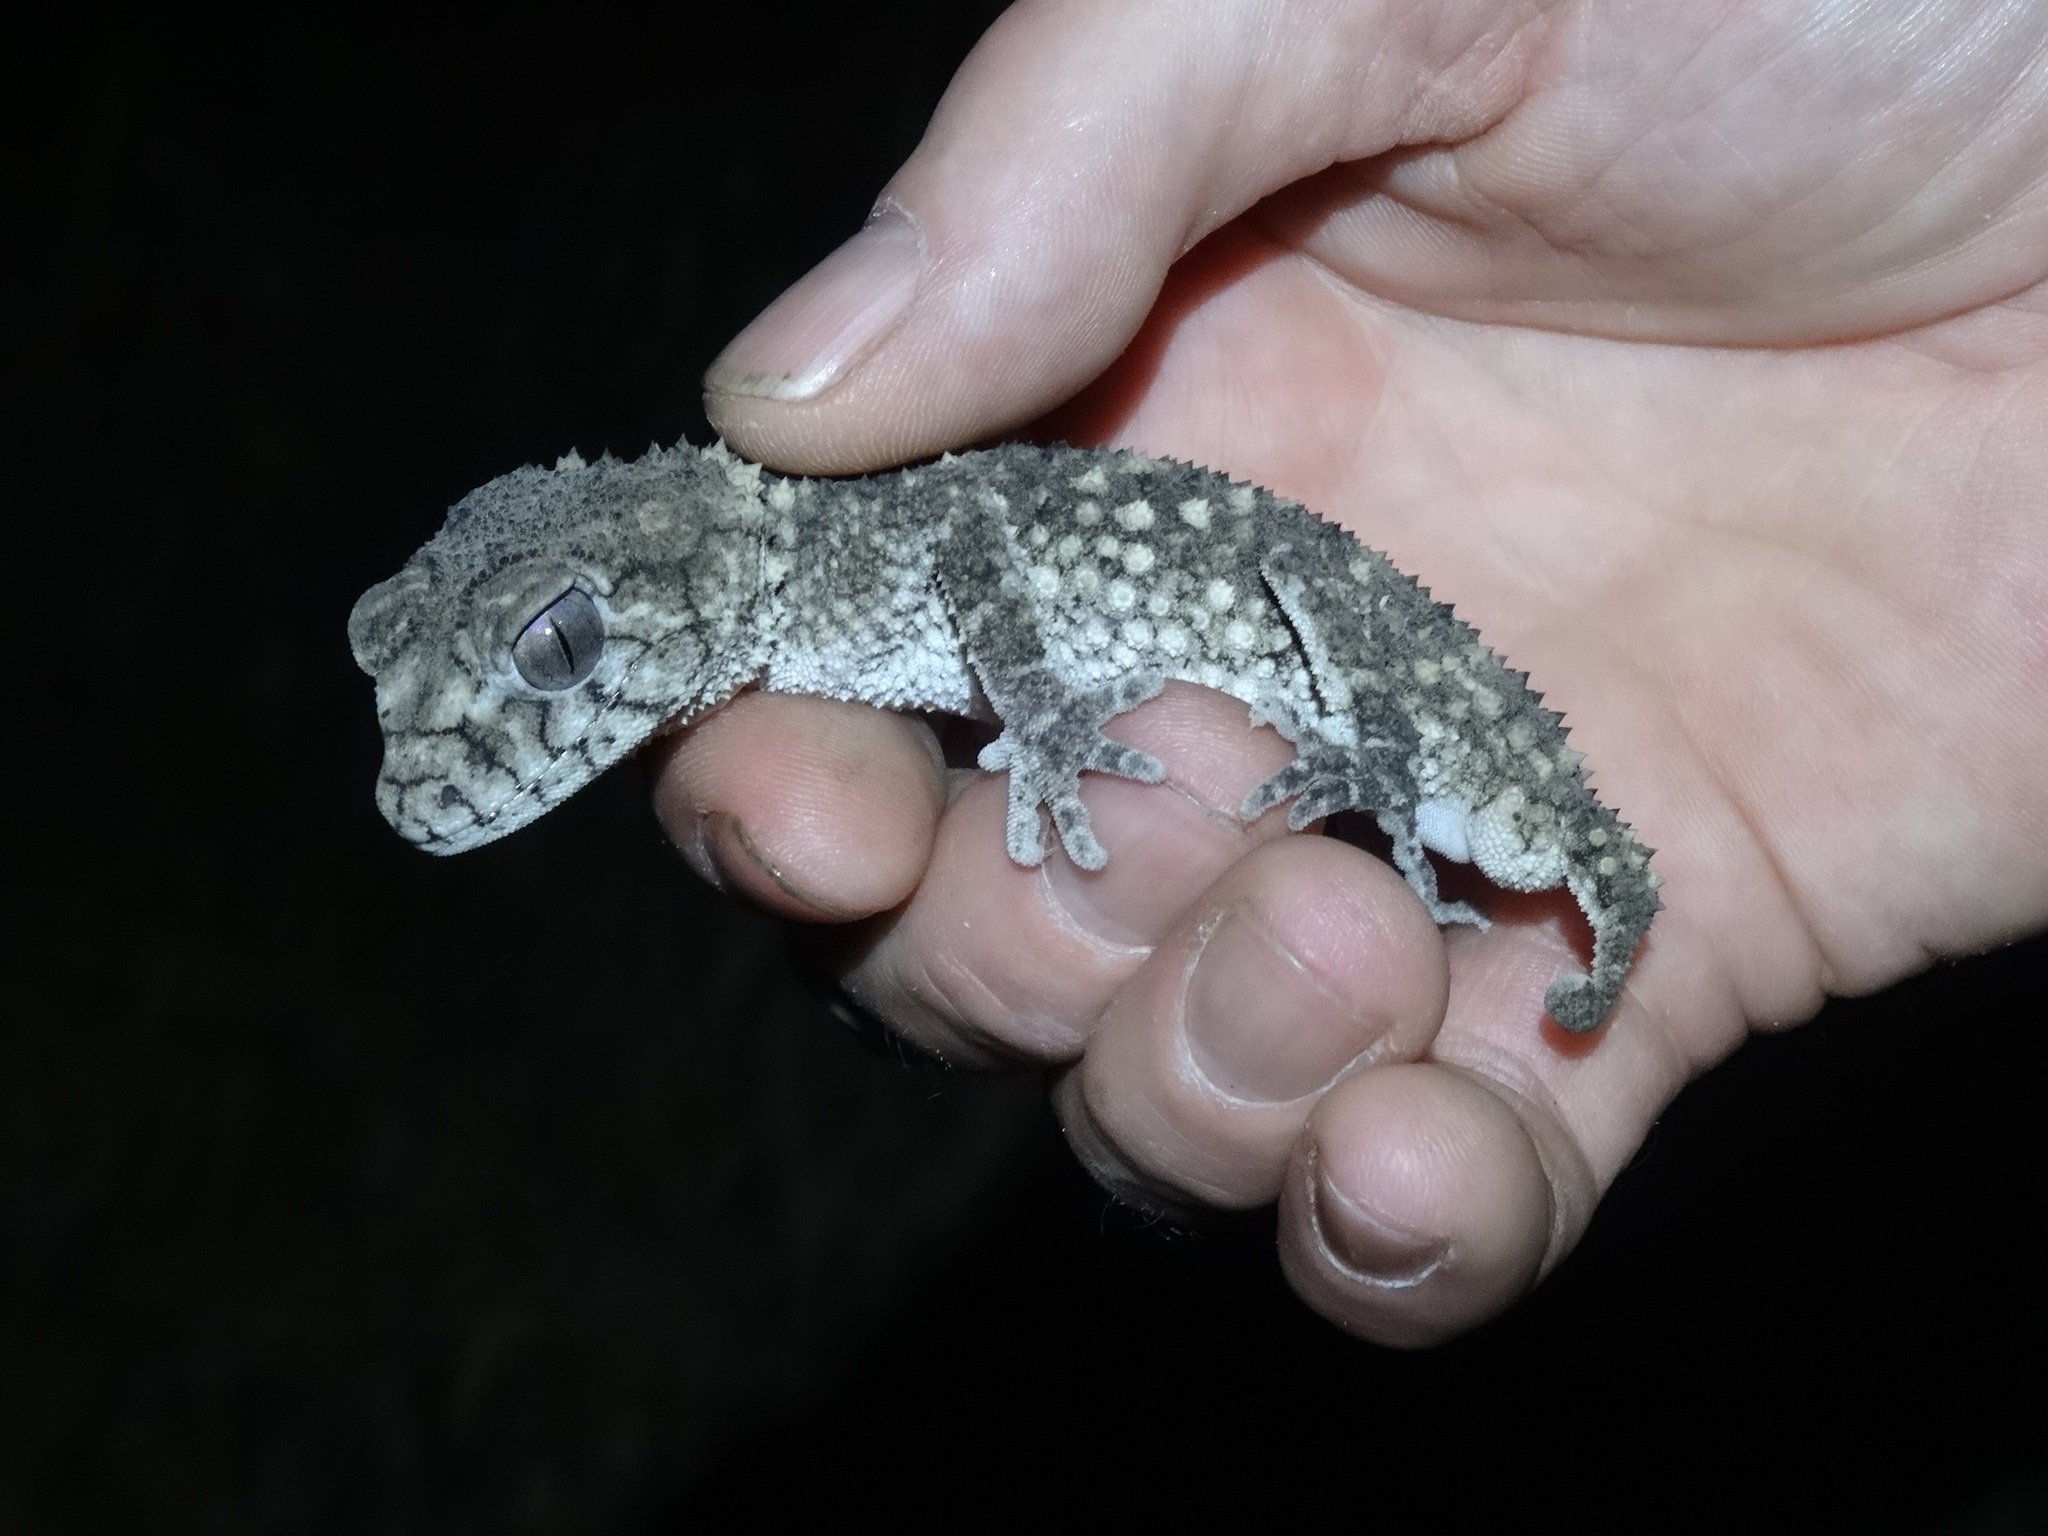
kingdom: Animalia
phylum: Chordata
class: Squamata
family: Carphodactylidae
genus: Nephrurus
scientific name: Nephrurus asper
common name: Rough knob-tail
